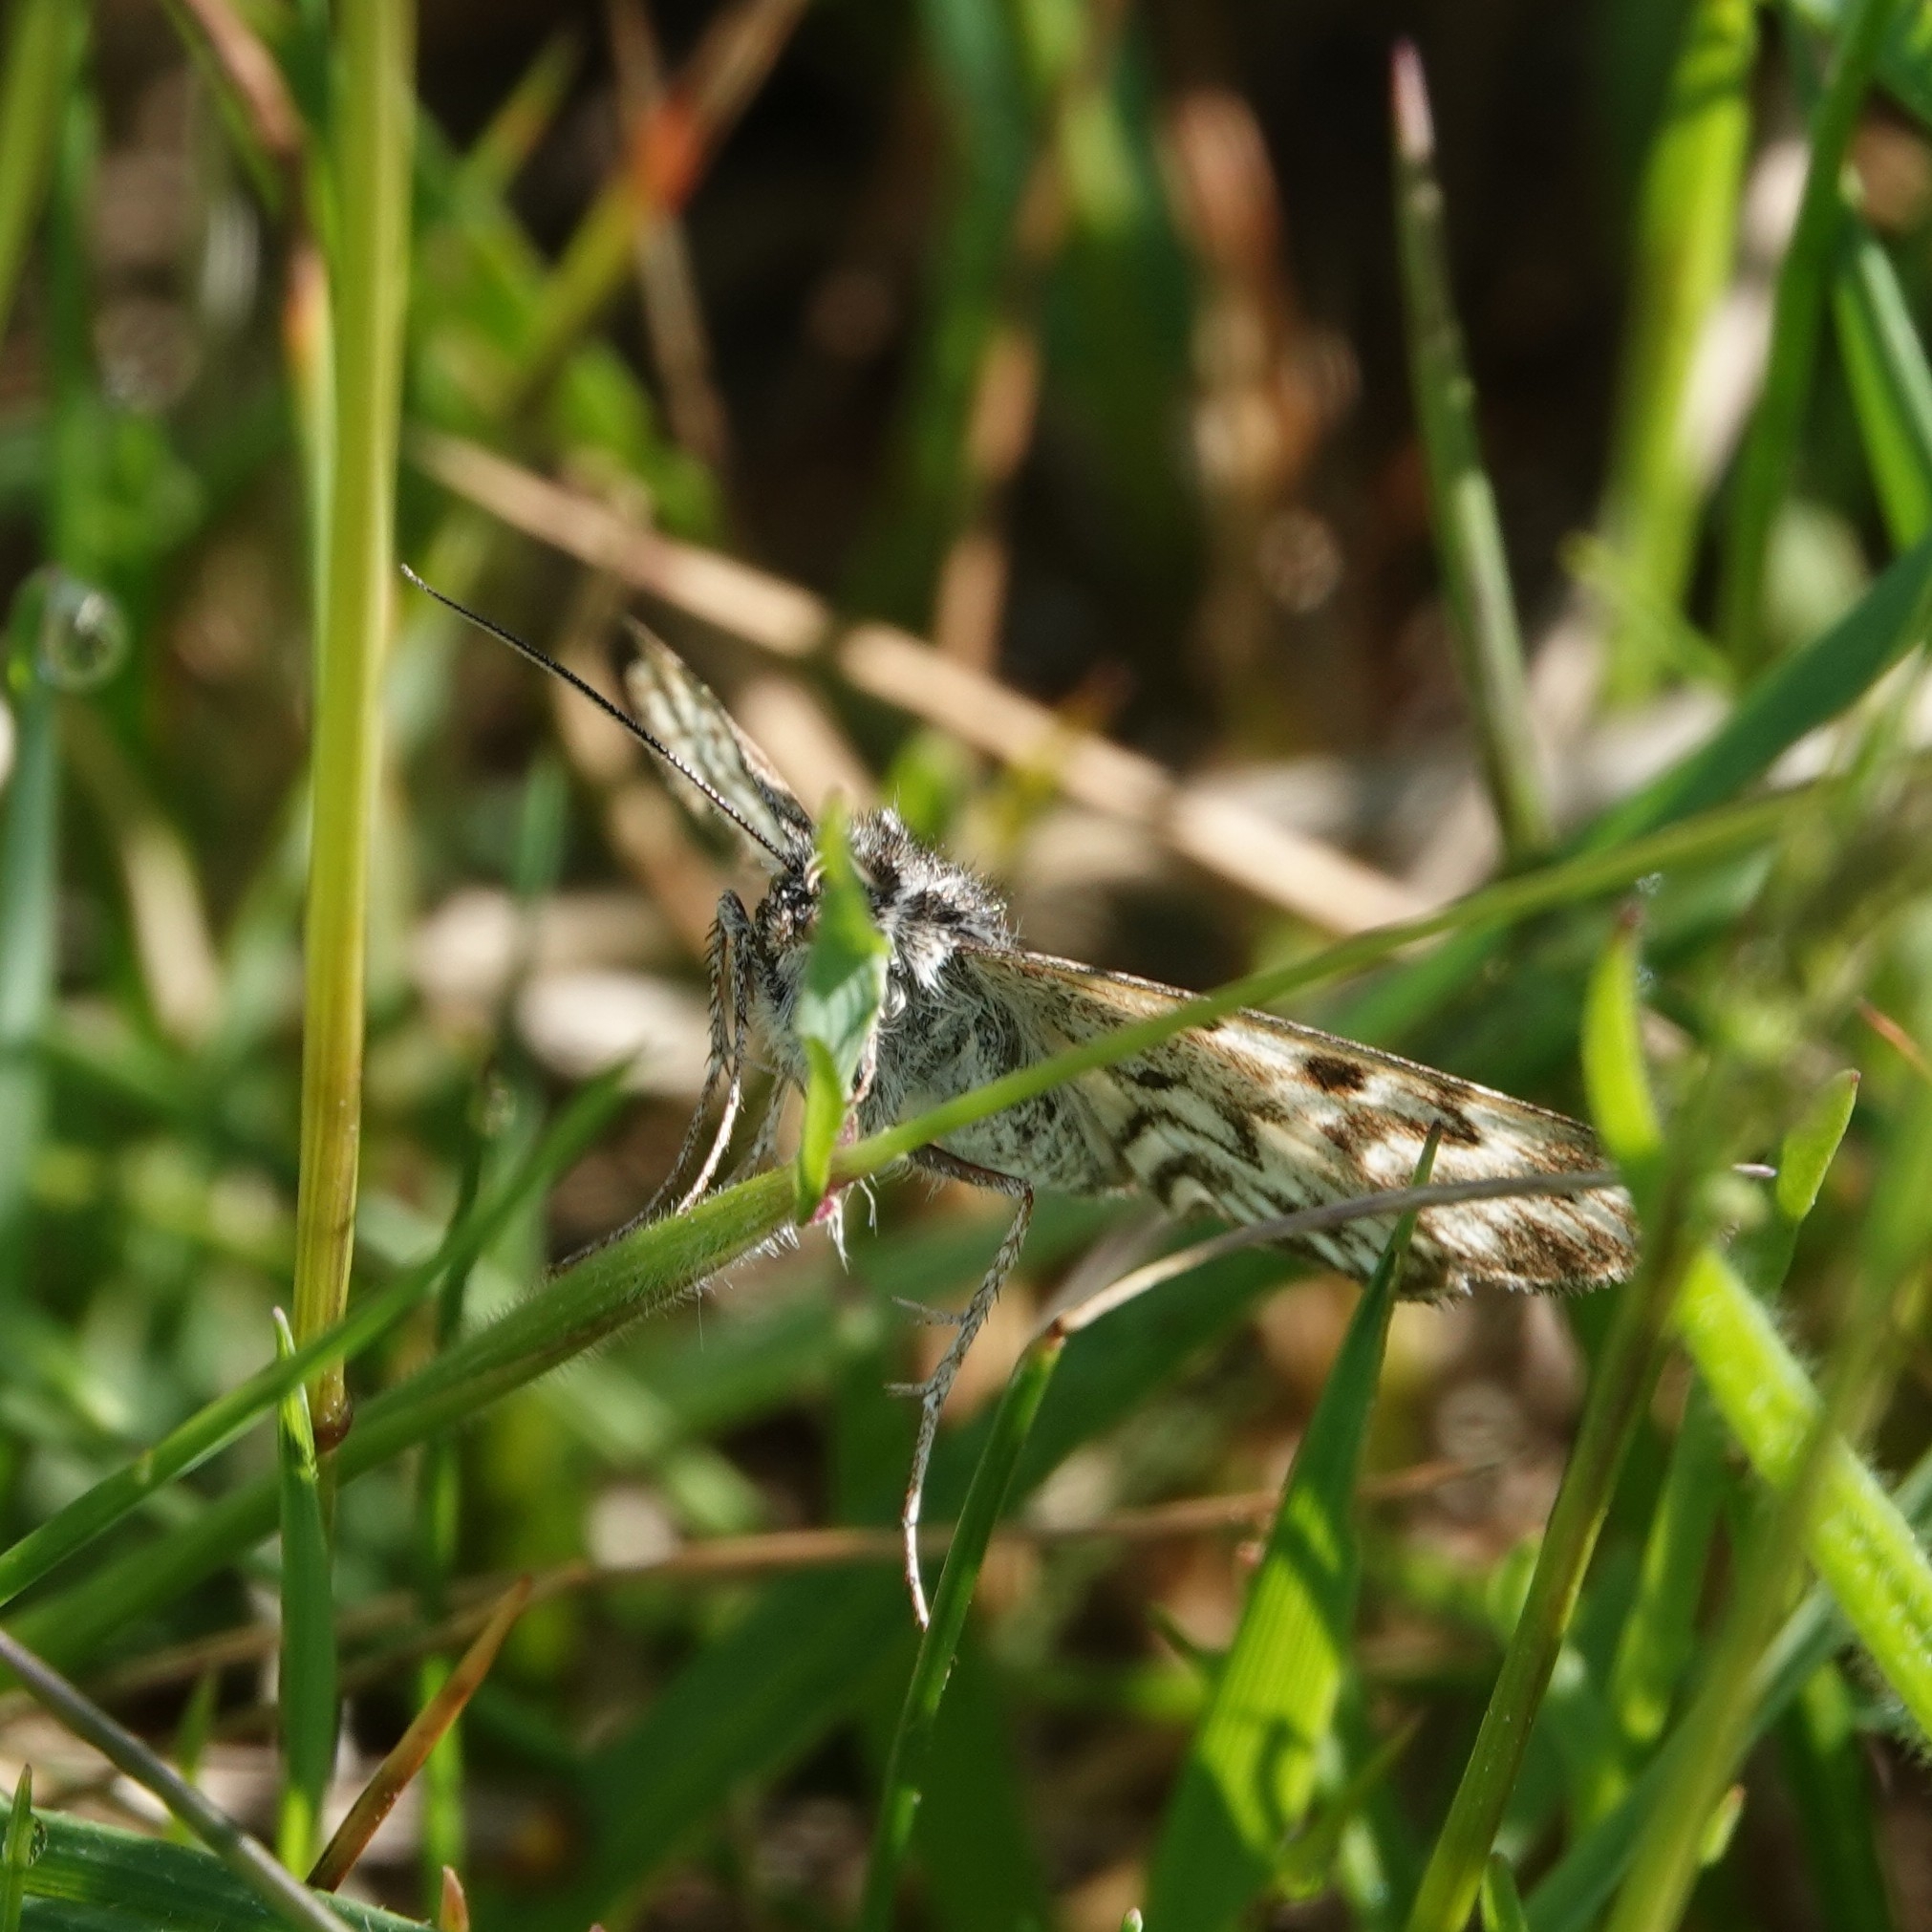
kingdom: Animalia
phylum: Arthropoda
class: Insecta
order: Lepidoptera
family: Erebidae
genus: Callistege
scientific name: Callistege mi
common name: Mother shipton
